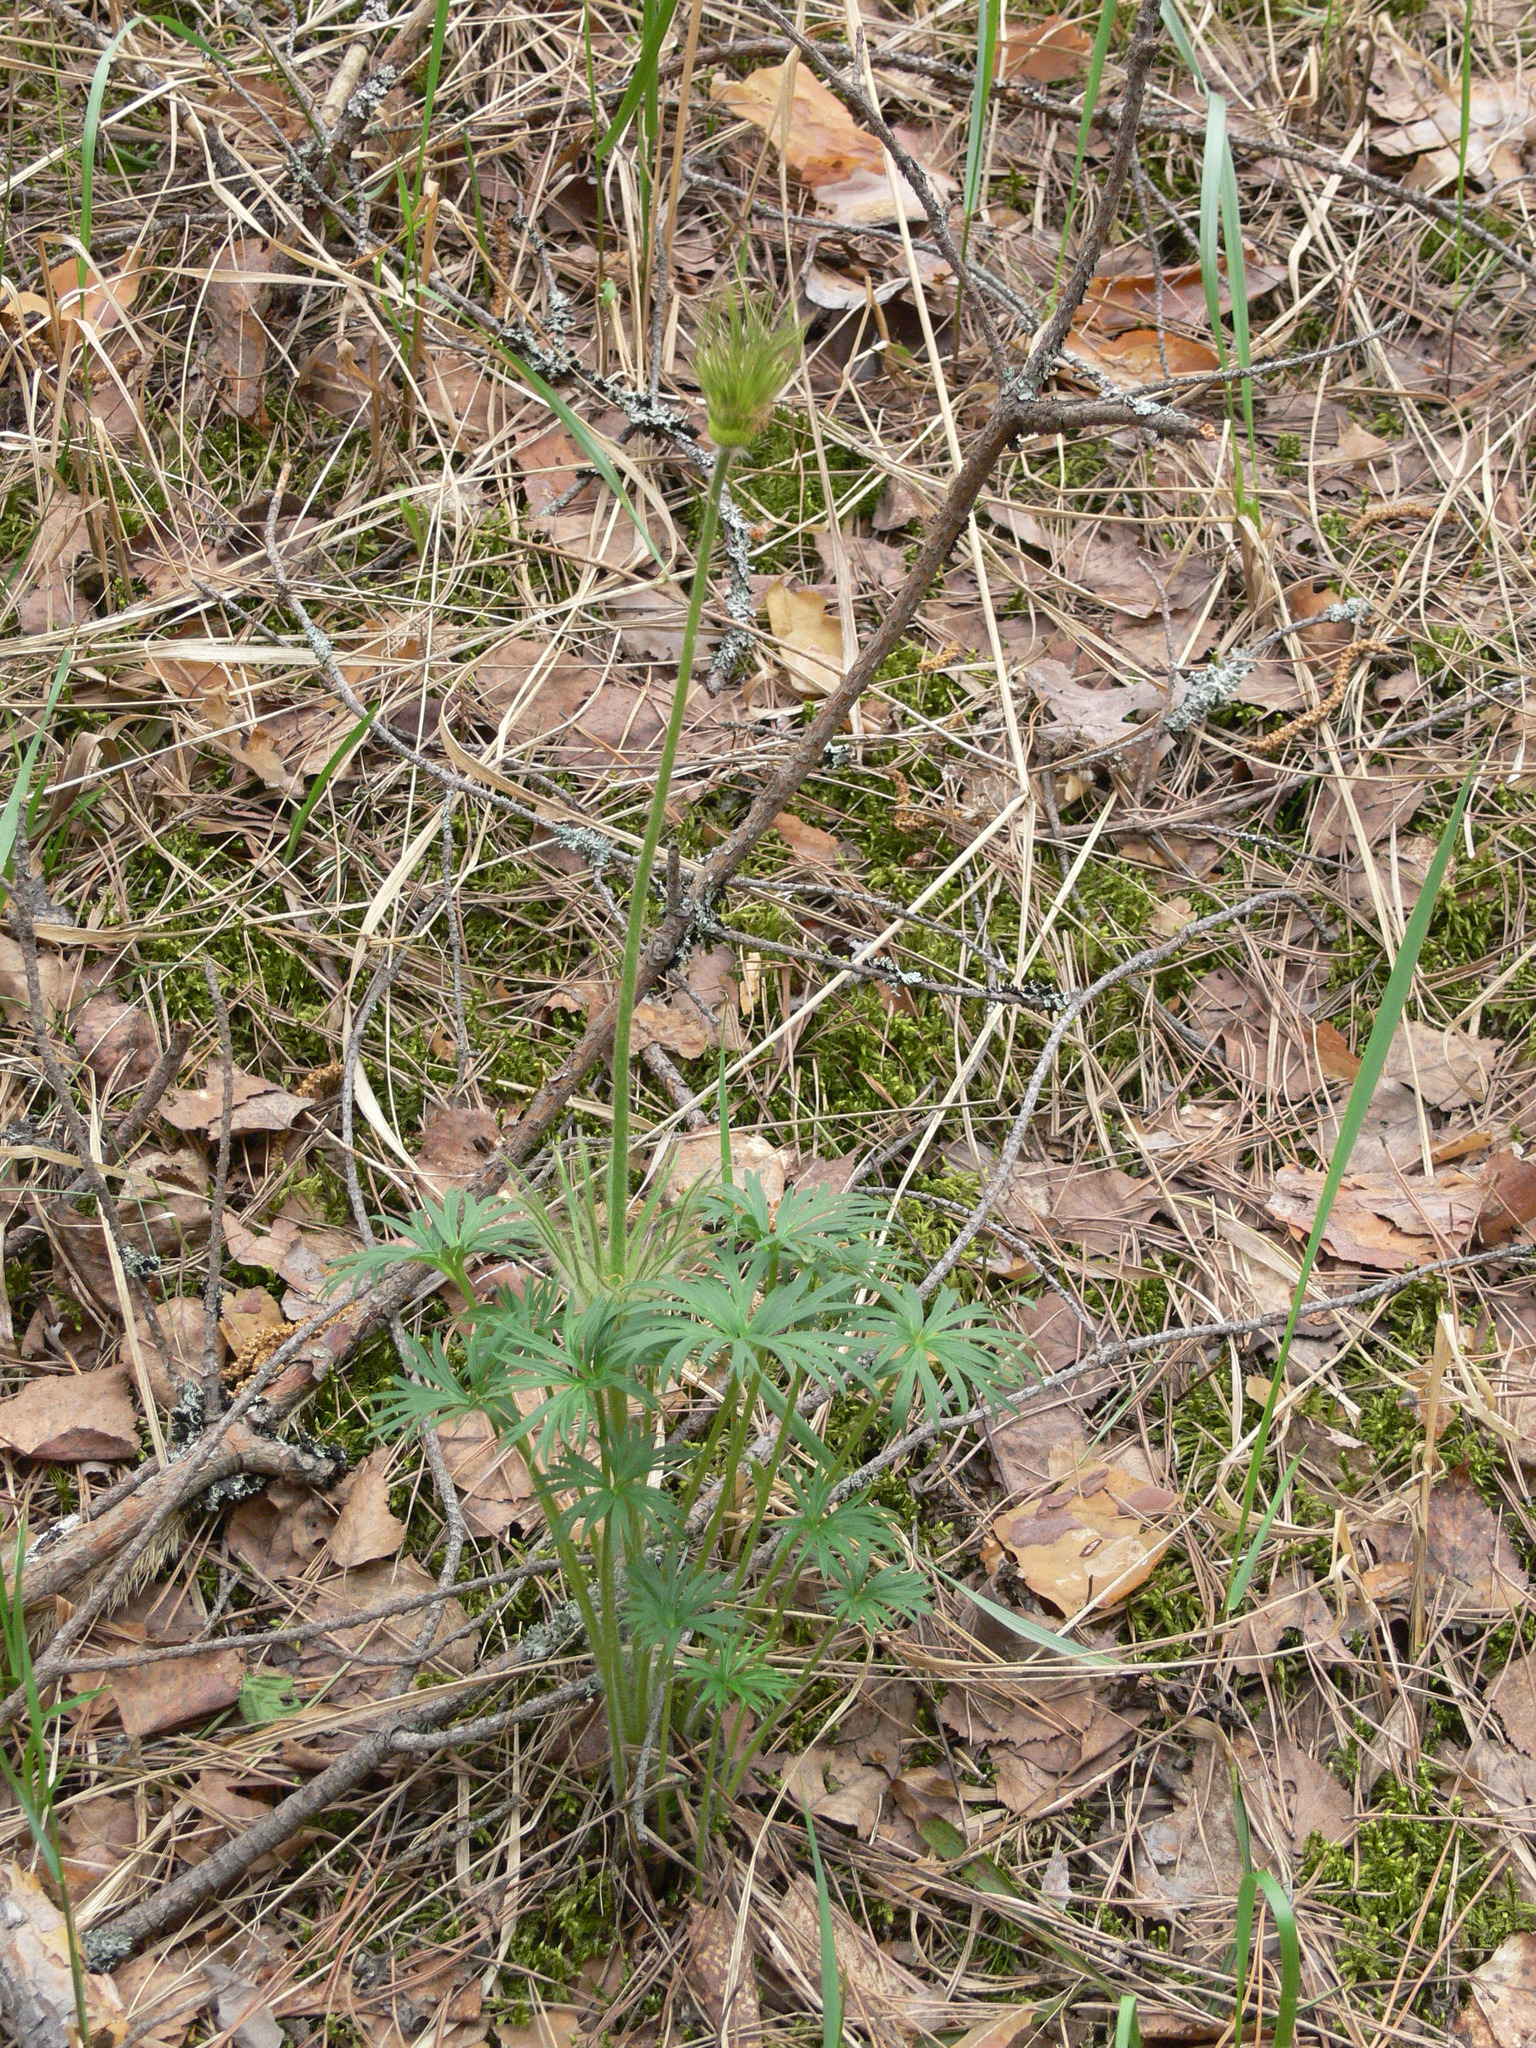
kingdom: Plantae
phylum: Tracheophyta
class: Magnoliopsida
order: Ranunculales
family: Ranunculaceae
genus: Pulsatilla
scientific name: Pulsatilla patens
